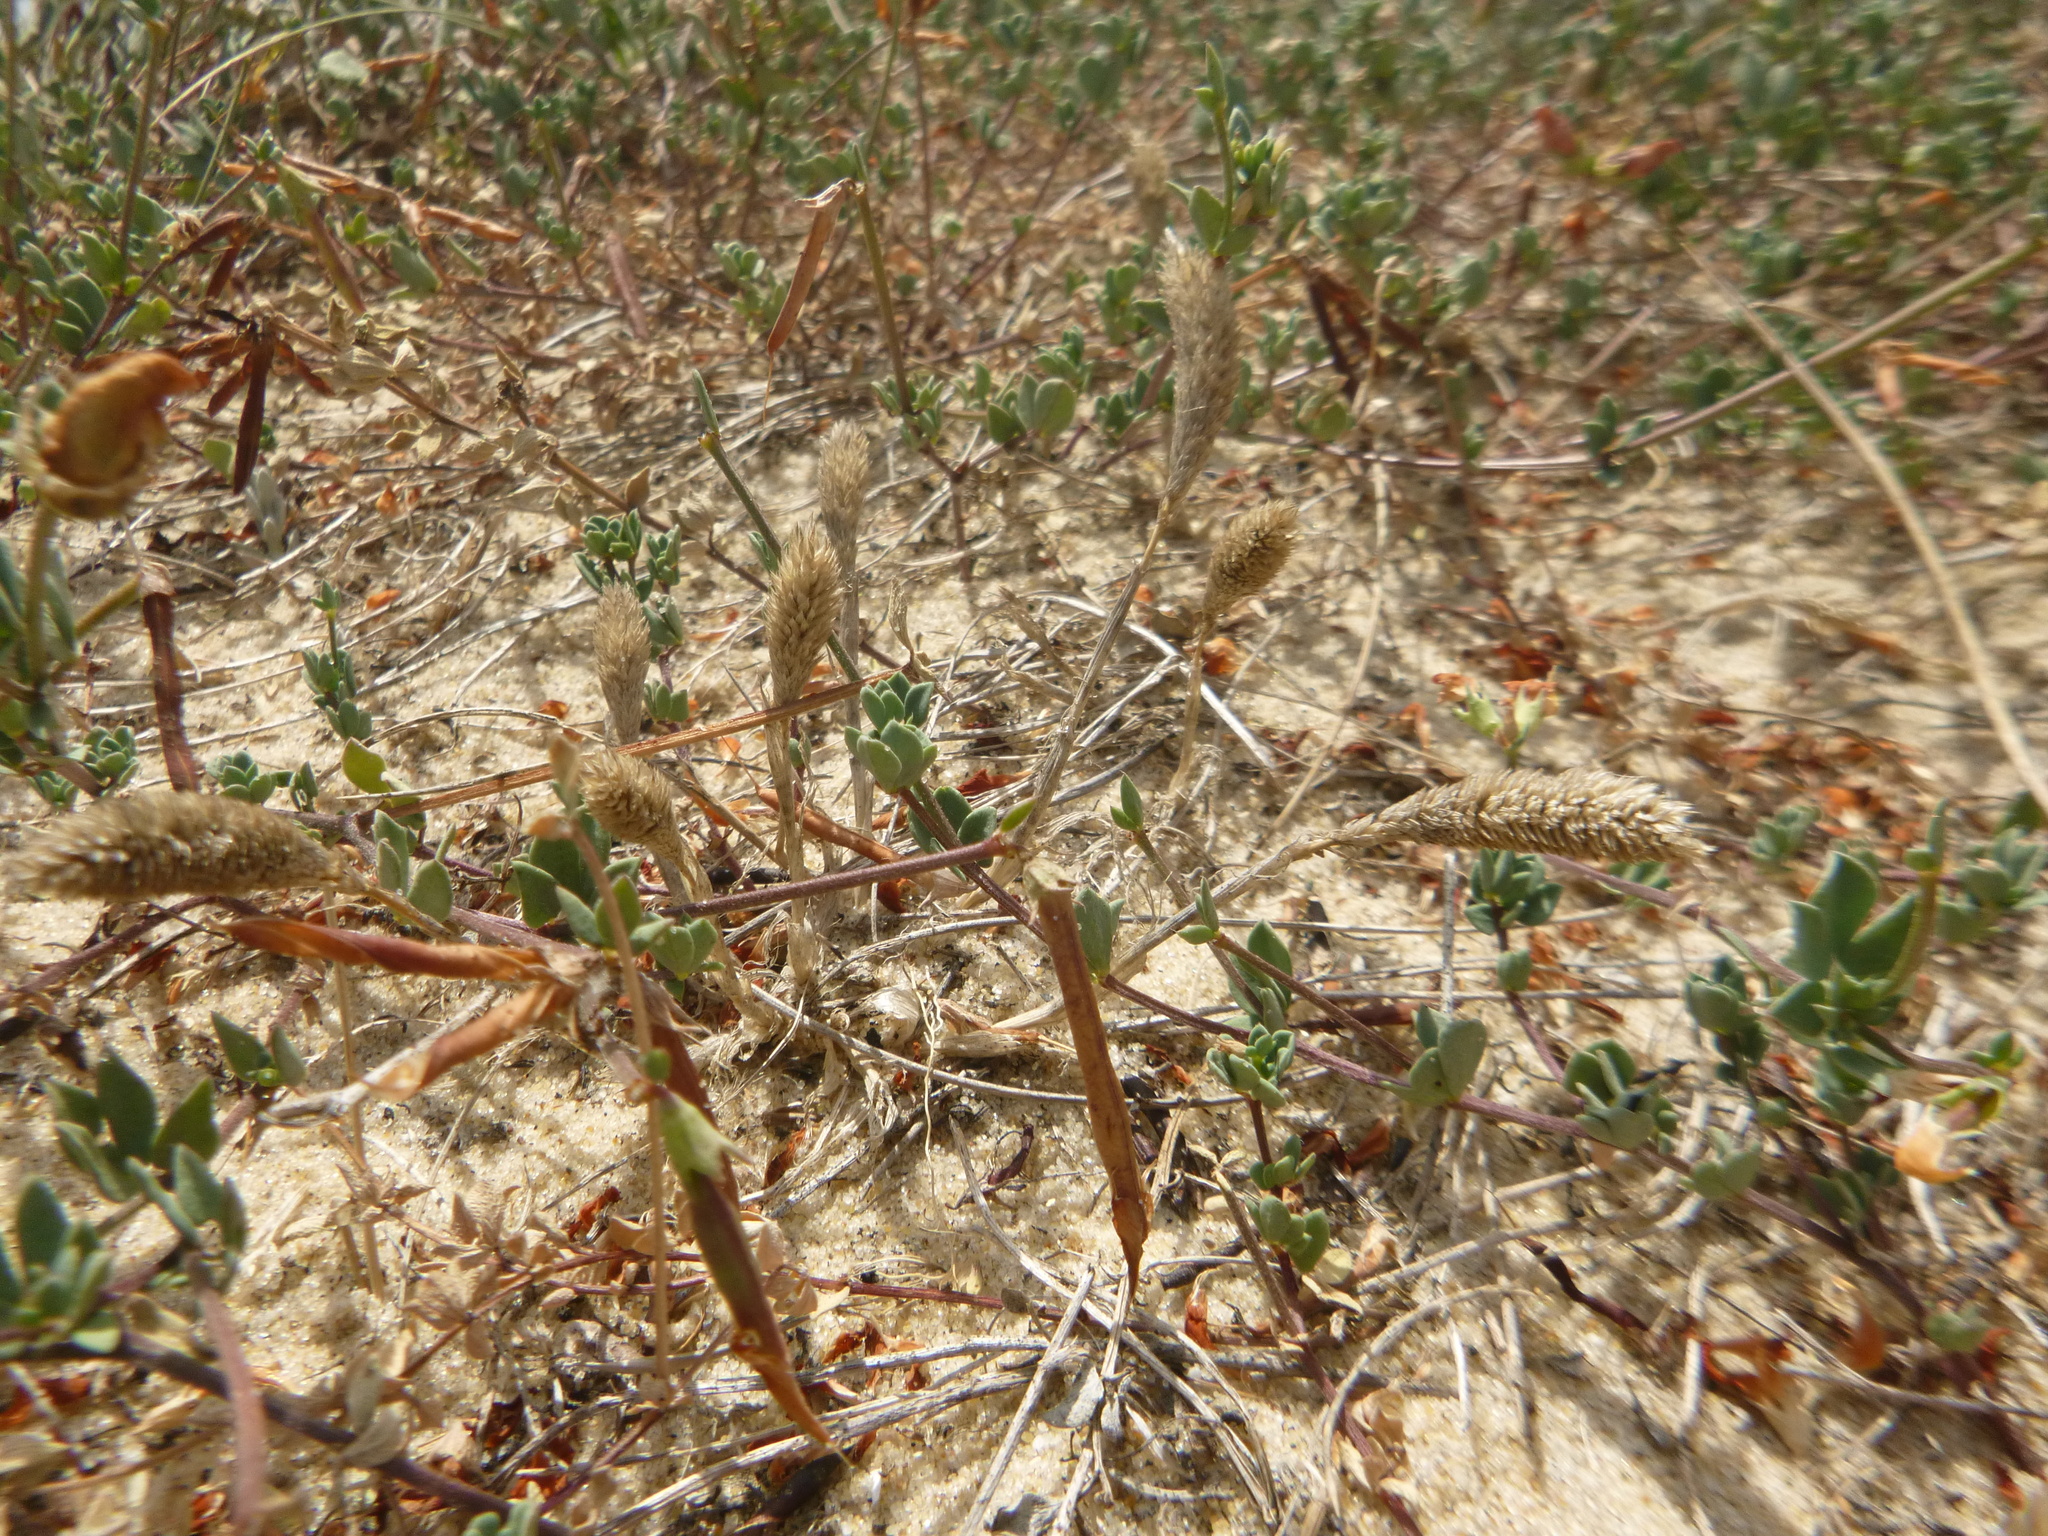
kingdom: Plantae
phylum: Tracheophyta
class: Liliopsida
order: Poales
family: Poaceae
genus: Phleum
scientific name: Phleum arenarium
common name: Sand cat's-tail
